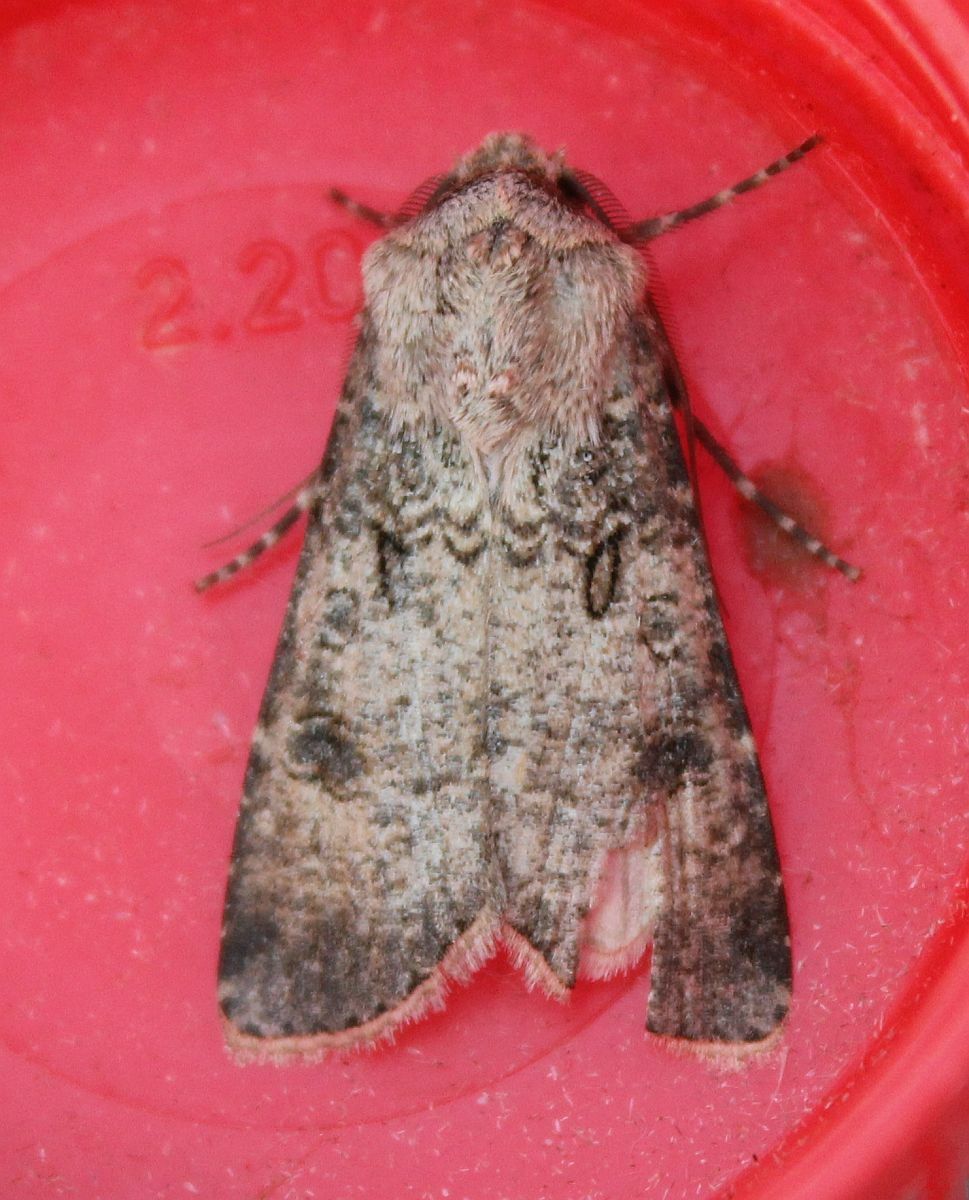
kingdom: Animalia
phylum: Arthropoda
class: Insecta
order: Lepidoptera
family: Noctuidae
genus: Agrotis
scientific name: Agrotis segetum
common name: Turnip moth
